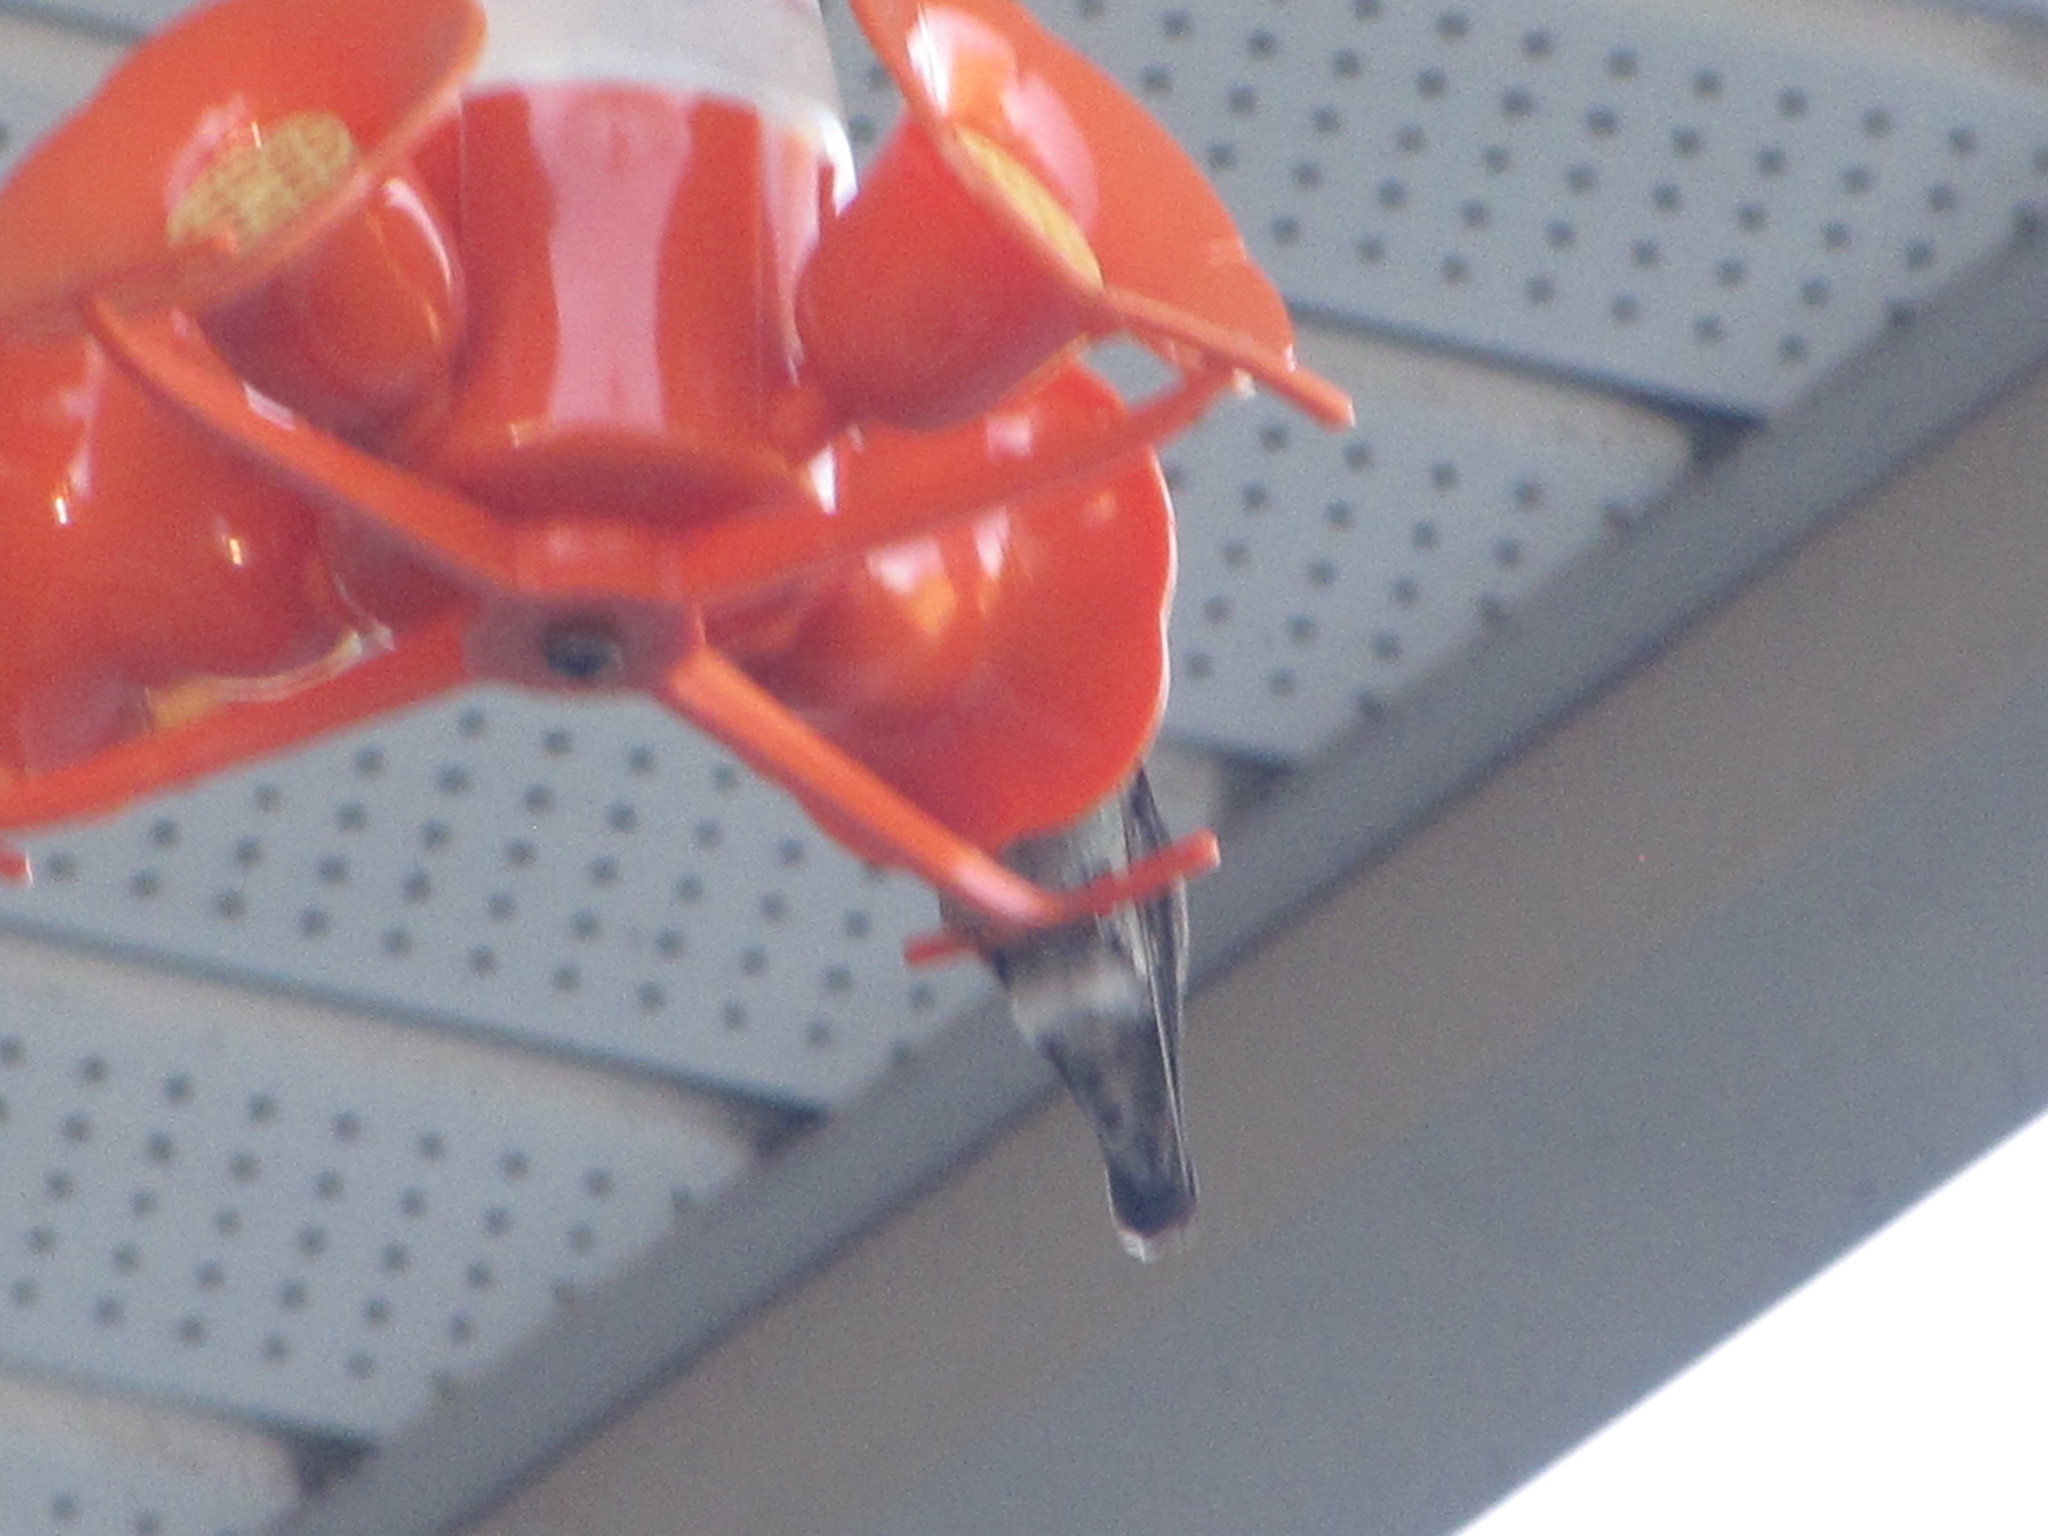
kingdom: Animalia
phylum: Chordata
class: Aves
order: Apodiformes
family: Trochilidae
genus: Calypte
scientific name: Calypte anna
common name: Anna's hummingbird
